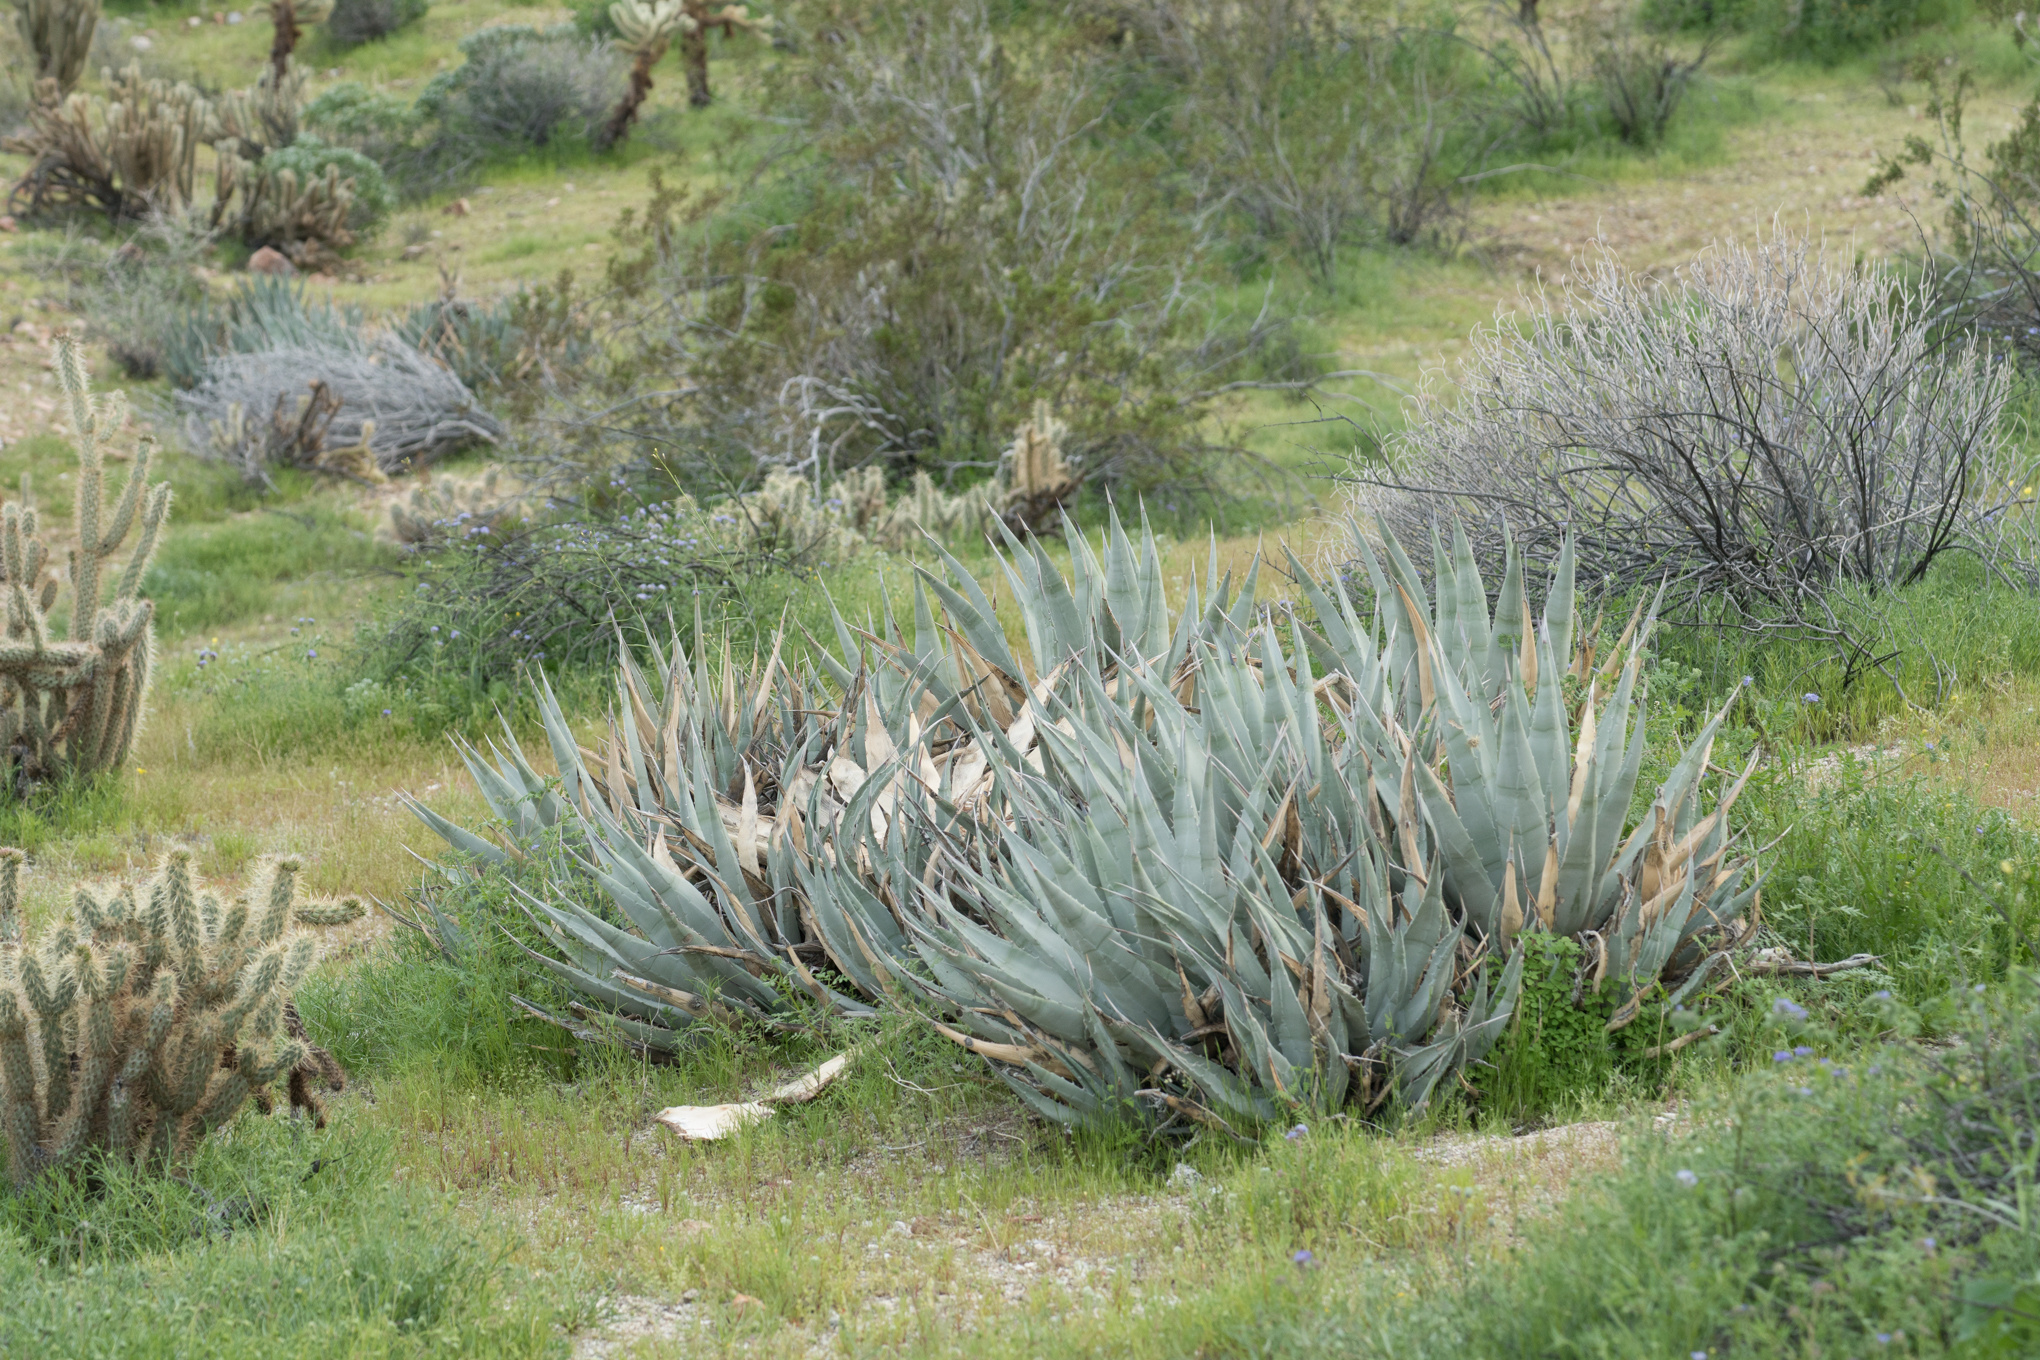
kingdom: Plantae
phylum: Tracheophyta
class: Liliopsida
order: Asparagales
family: Asparagaceae
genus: Agave
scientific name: Agave deserti
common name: Desert agave
